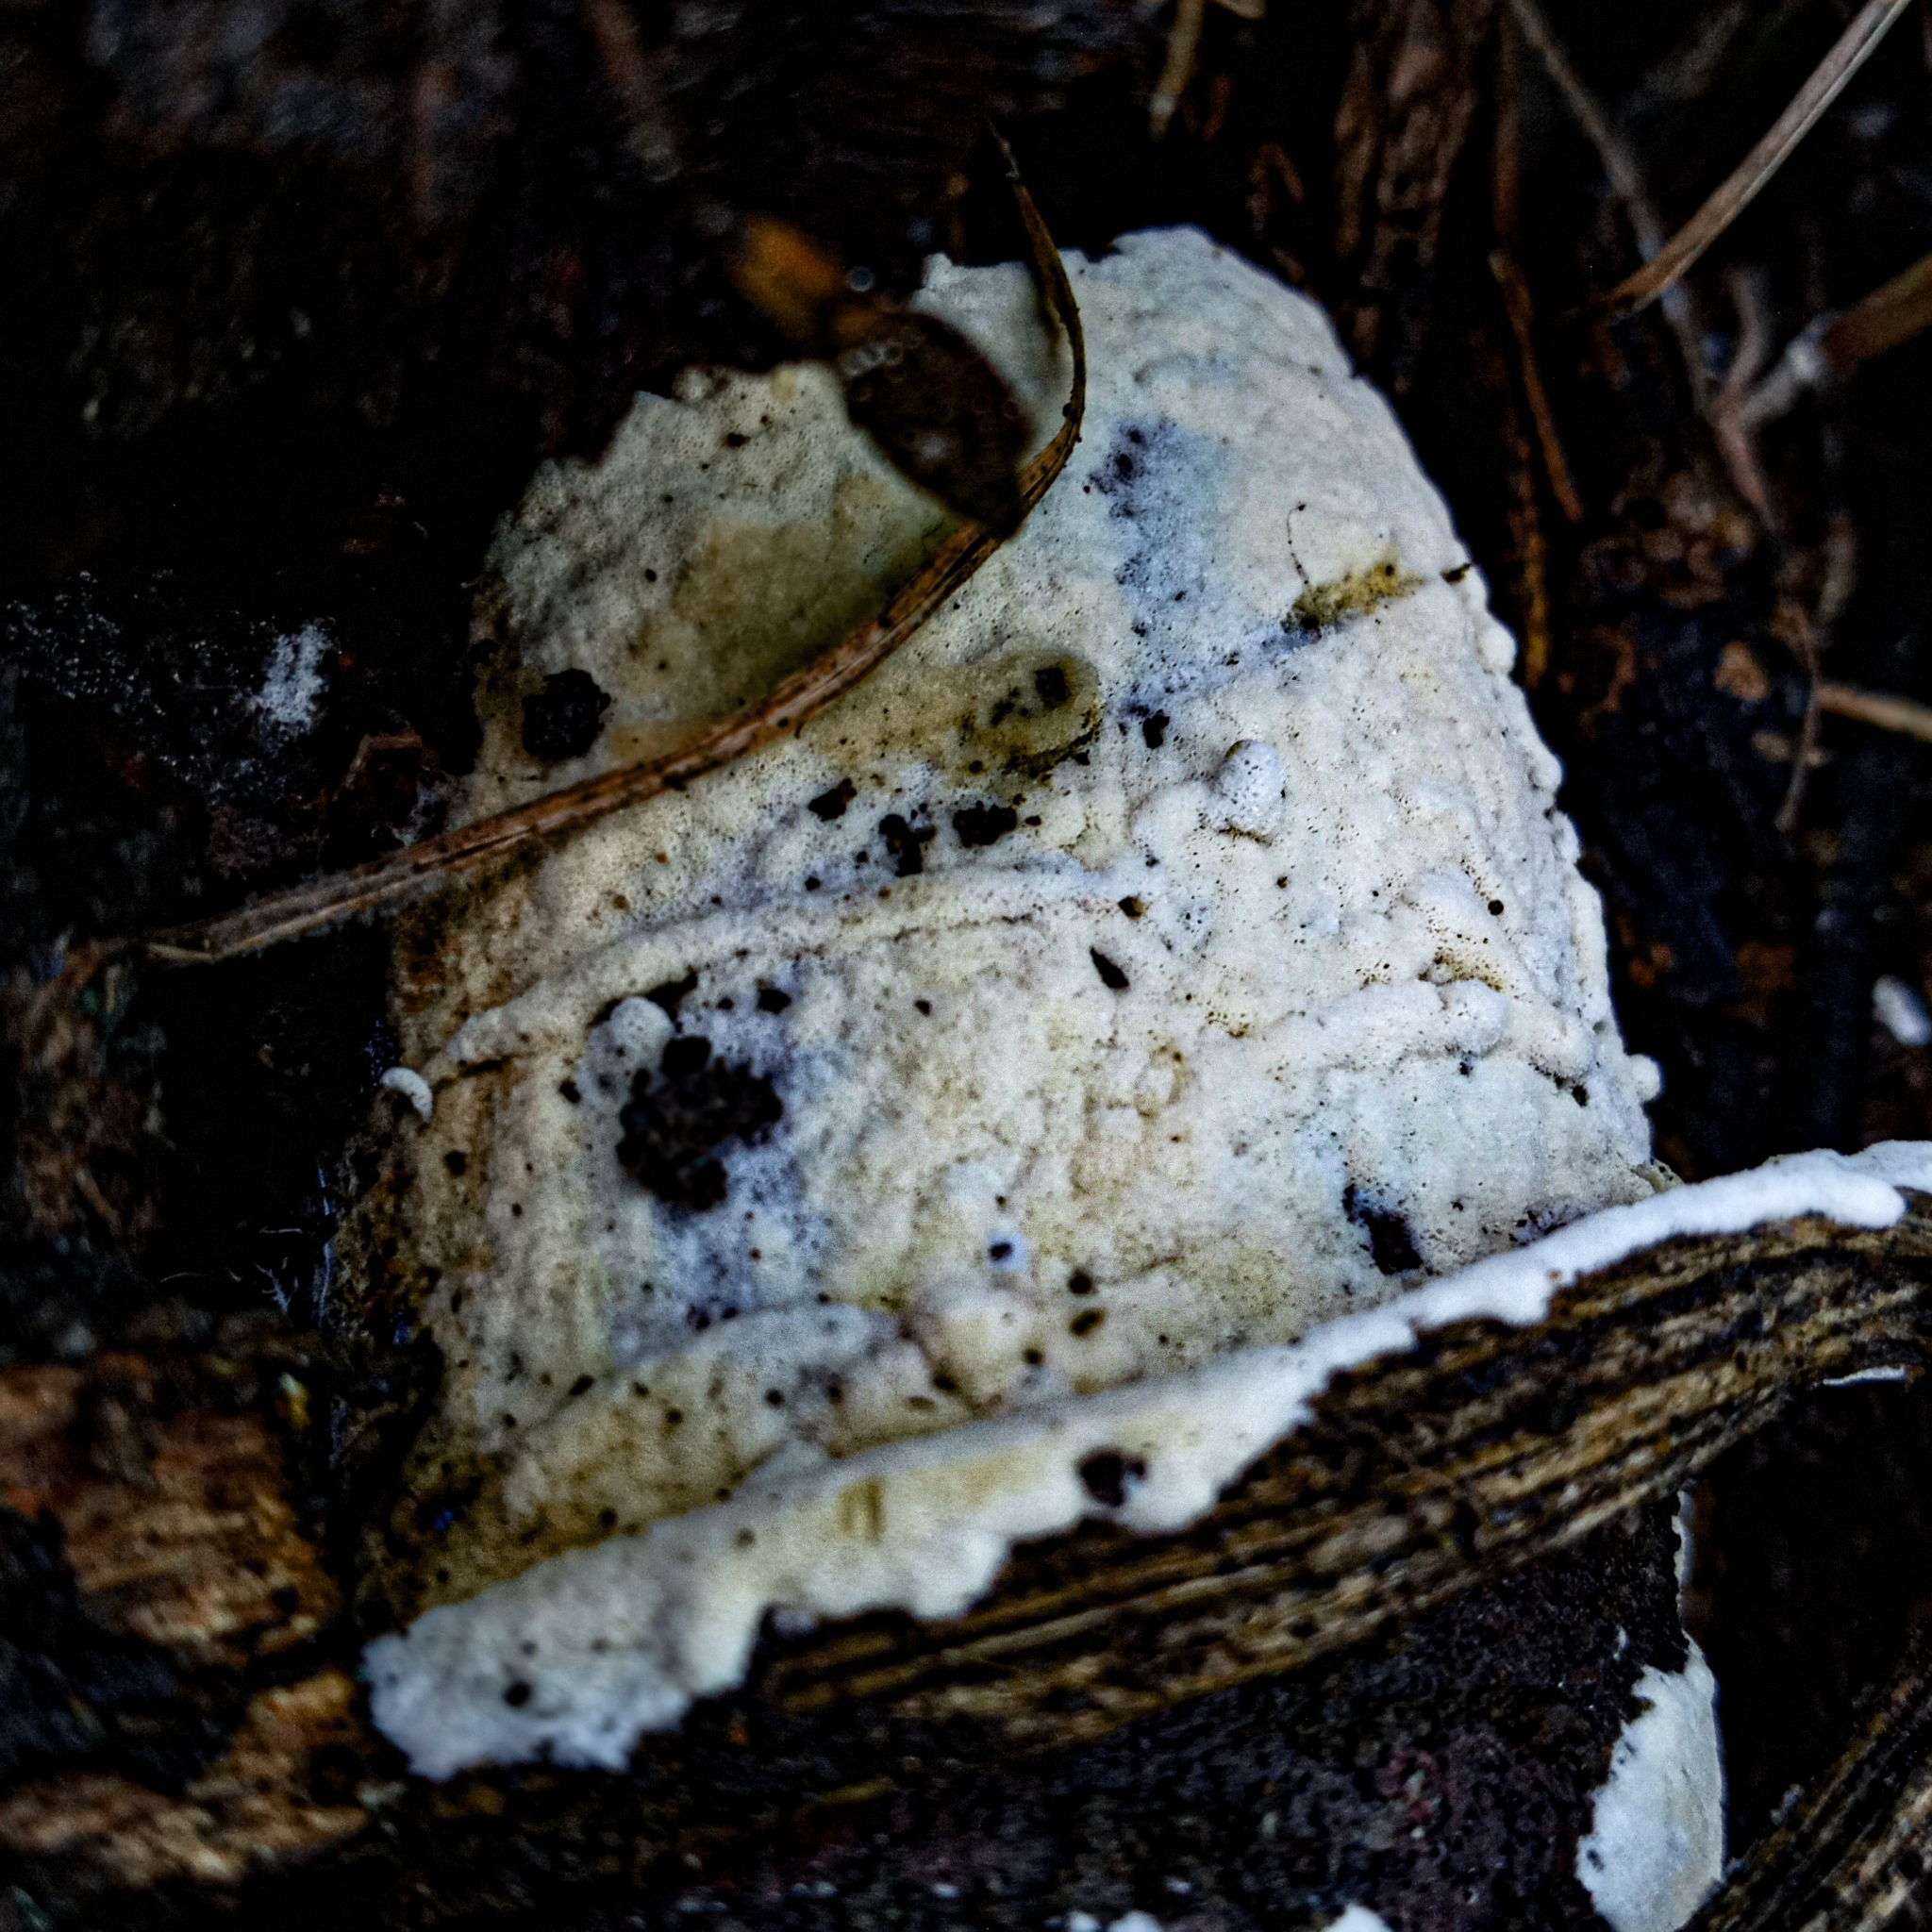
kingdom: Fungi
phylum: Basidiomycota
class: Agaricomycetes
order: Polyporales
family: Irpicaceae
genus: Irpex
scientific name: Irpex lacteus
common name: Milk-white toothed polypore
